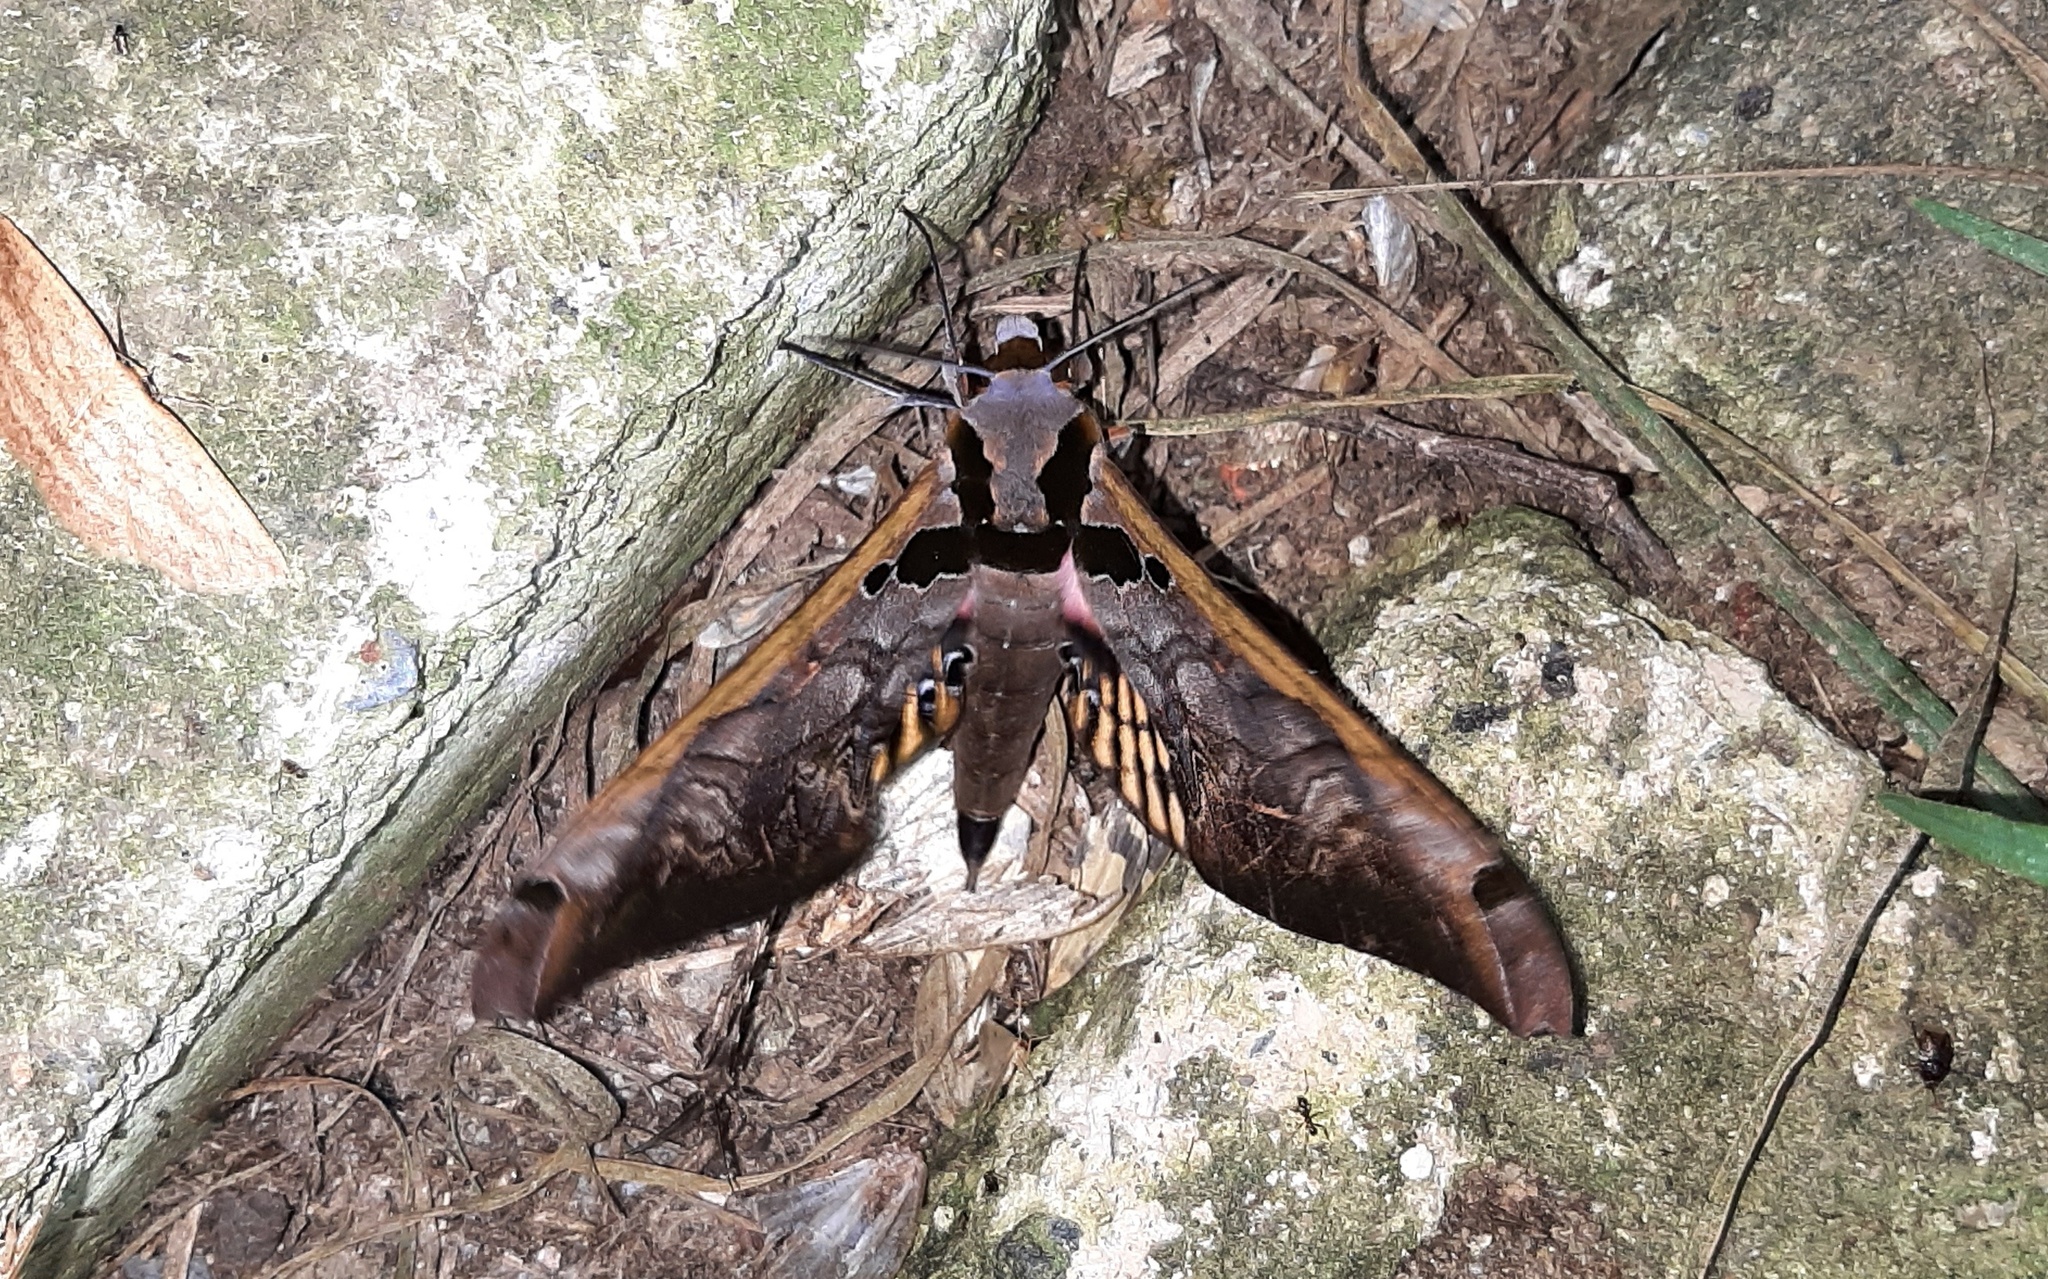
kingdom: Animalia
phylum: Arthropoda
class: Insecta
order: Lepidoptera
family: Sphingidae
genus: Adhemarius
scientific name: Adhemarius sexoculata
